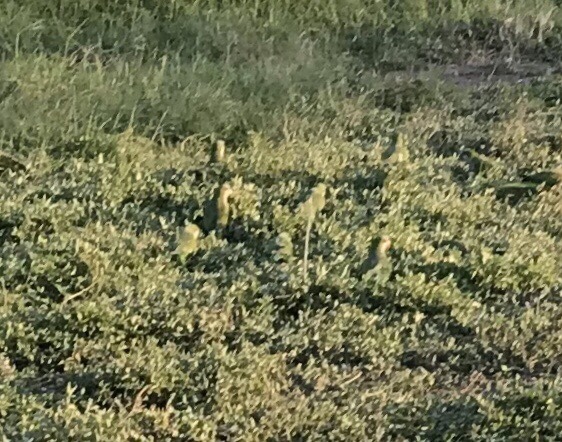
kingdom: Animalia
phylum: Chordata
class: Aves
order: Psittaciformes
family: Psittacidae
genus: Myiopsitta
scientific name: Myiopsitta monachus
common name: Monk parakeet
